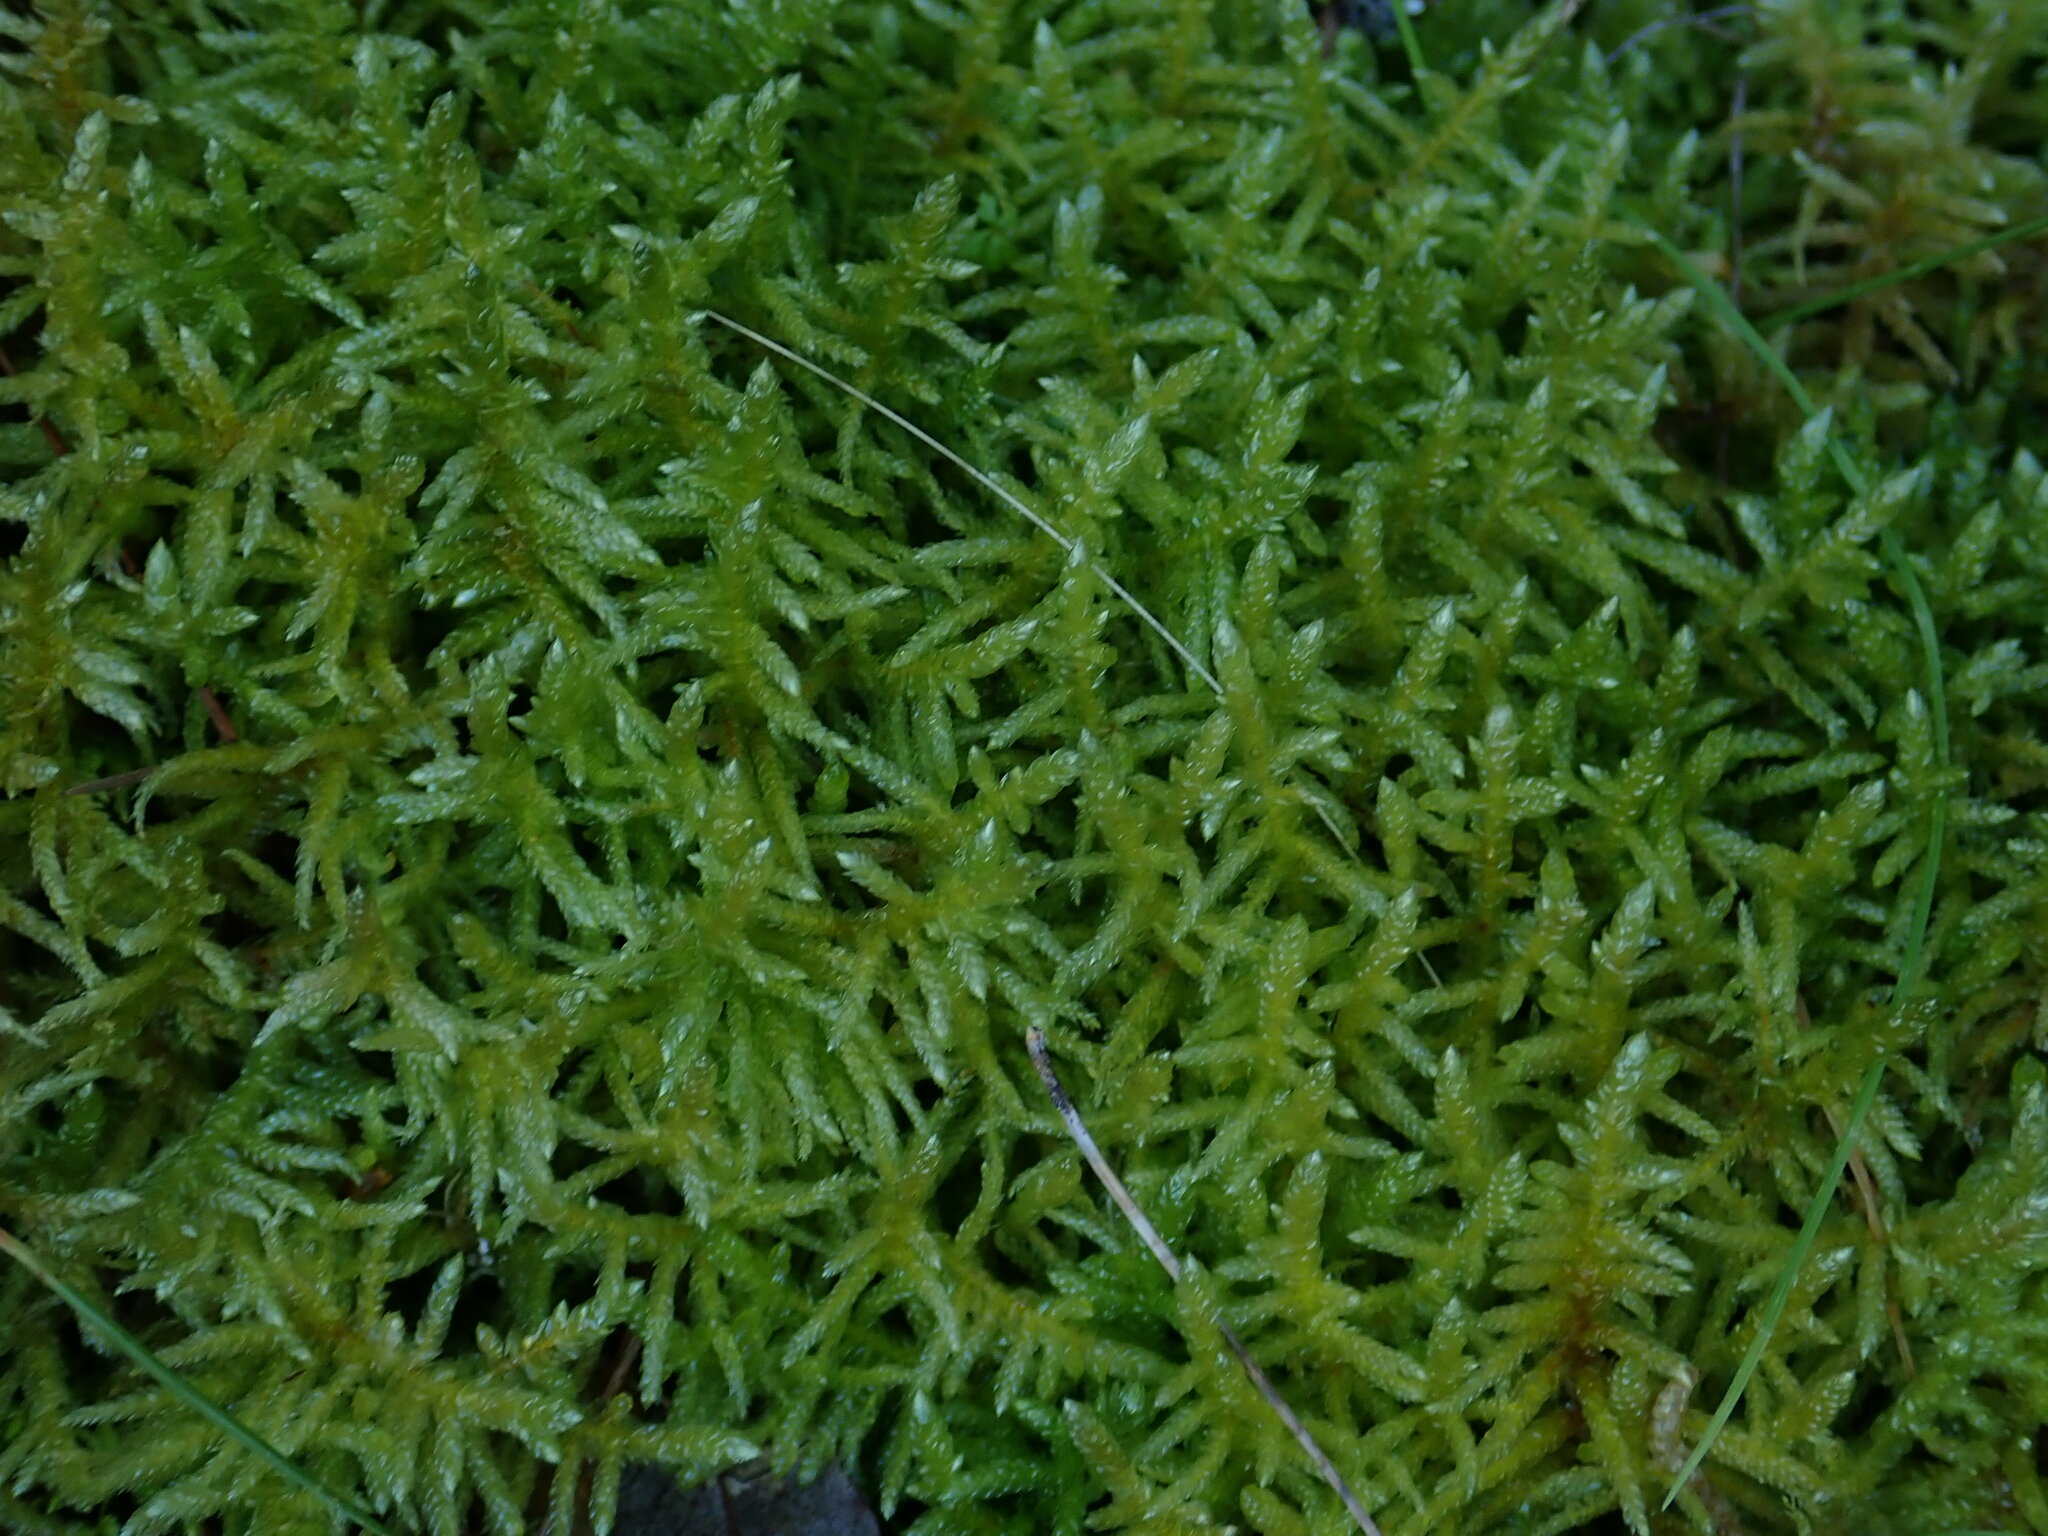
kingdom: Plantae
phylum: Bryophyta
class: Bryopsida
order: Hypnales
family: Brachytheciaceae
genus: Pseudoscleropodium
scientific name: Pseudoscleropodium purum
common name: Neat feather-moss
